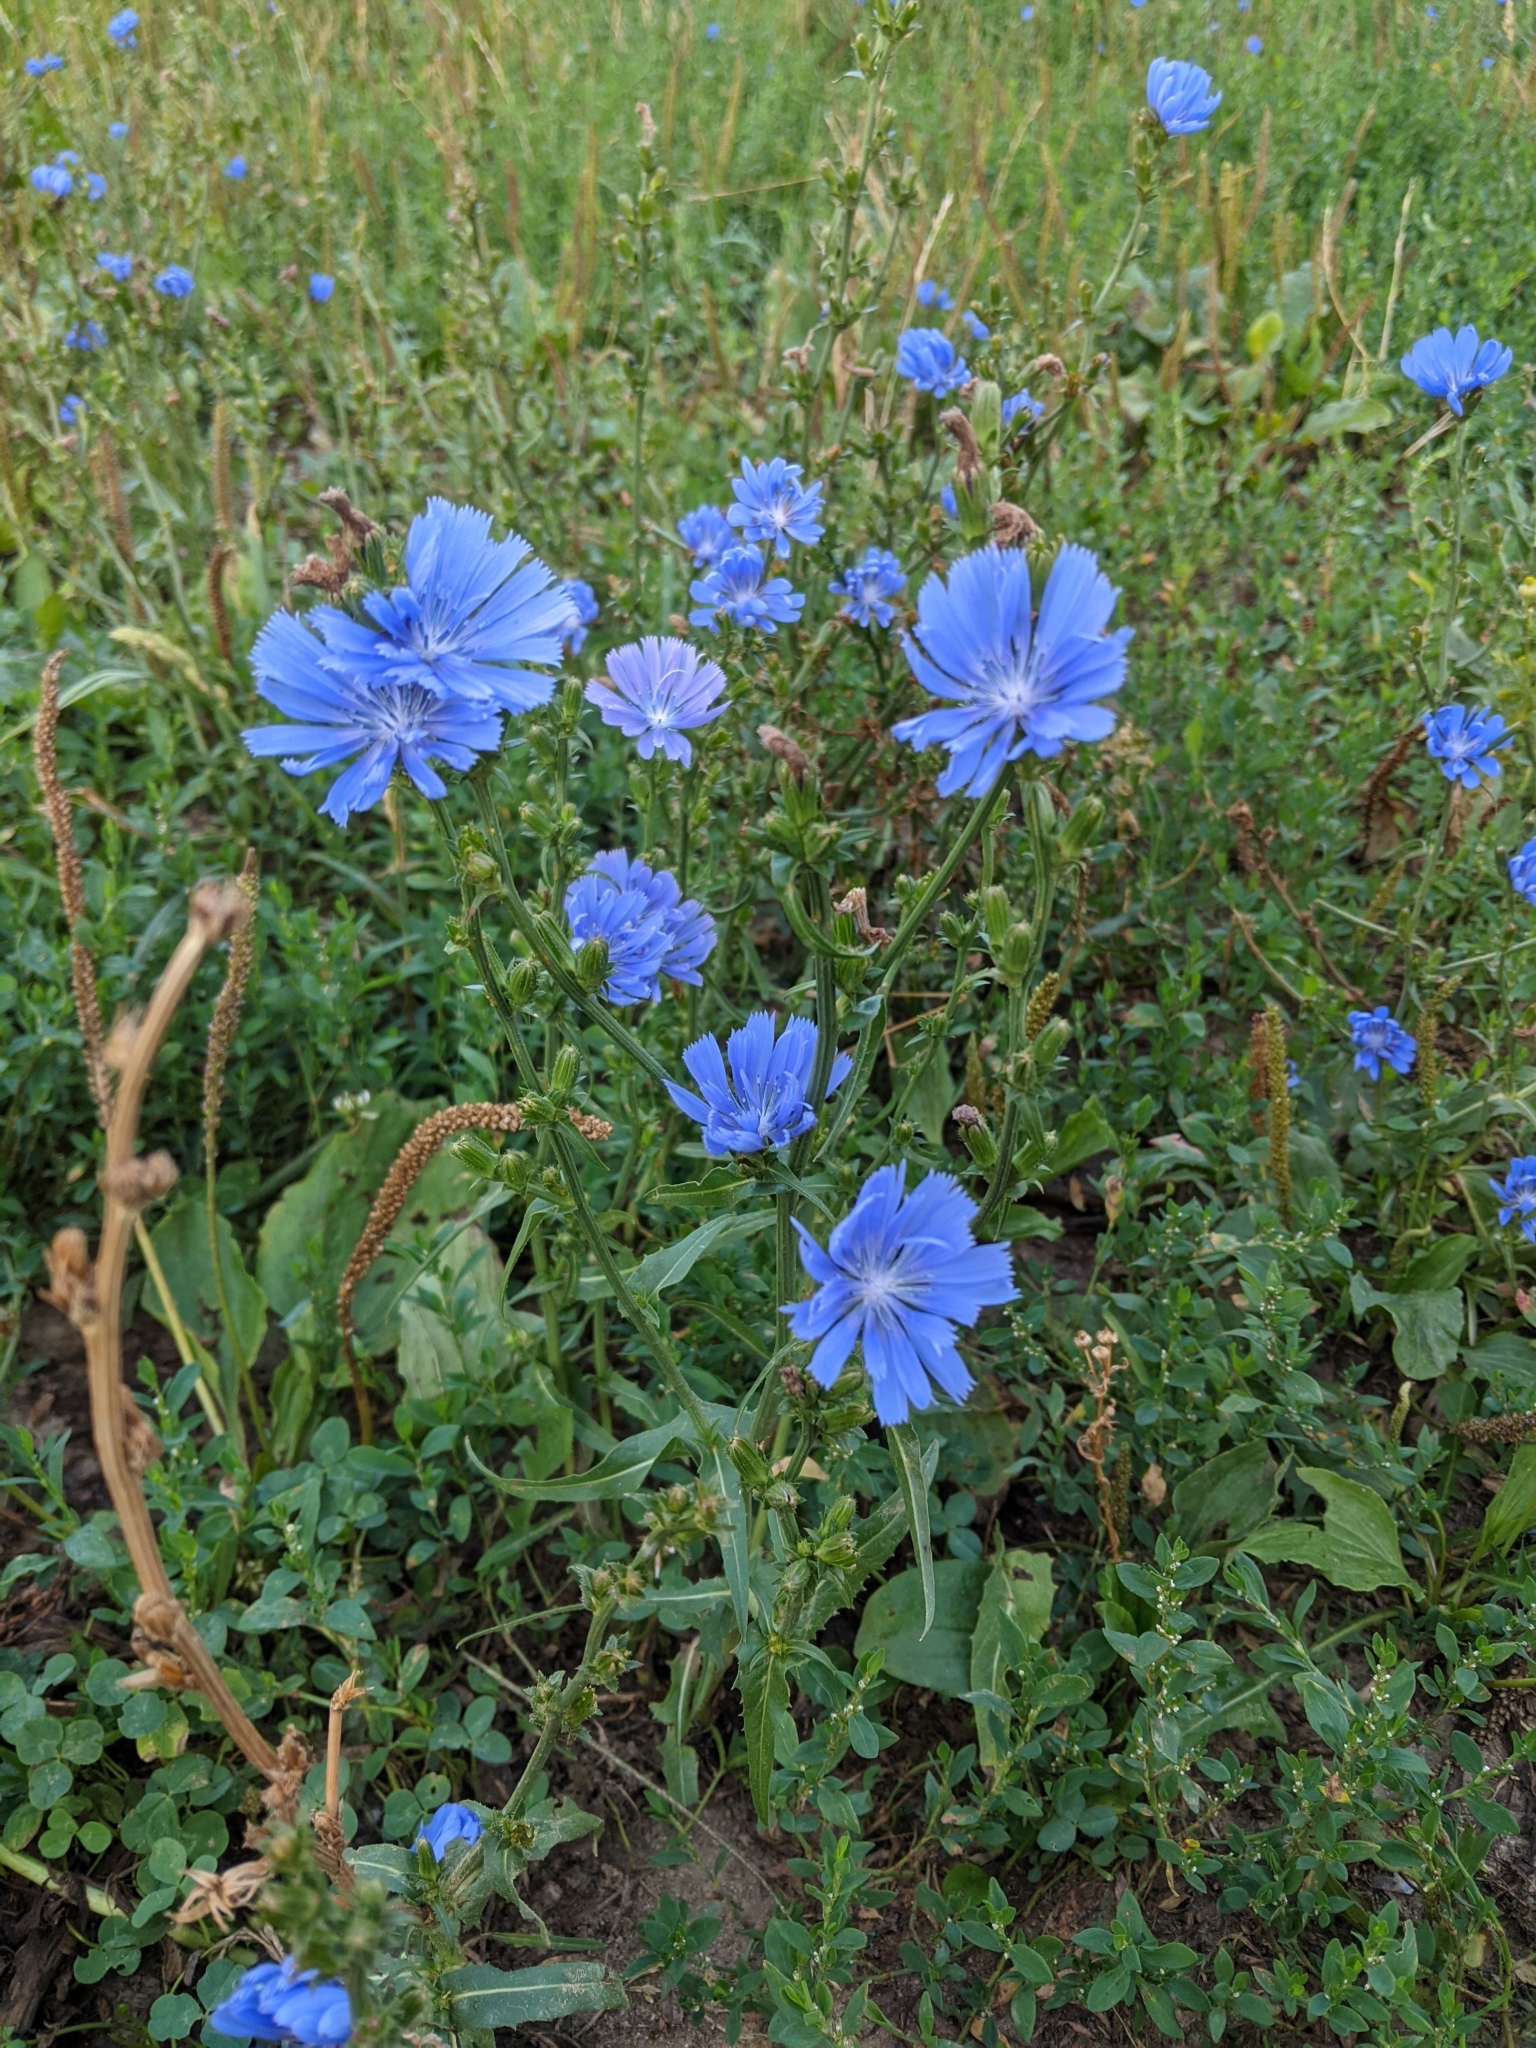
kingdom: Plantae
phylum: Tracheophyta
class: Magnoliopsida
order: Asterales
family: Asteraceae
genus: Cichorium
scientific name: Cichorium intybus
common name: Chicory
